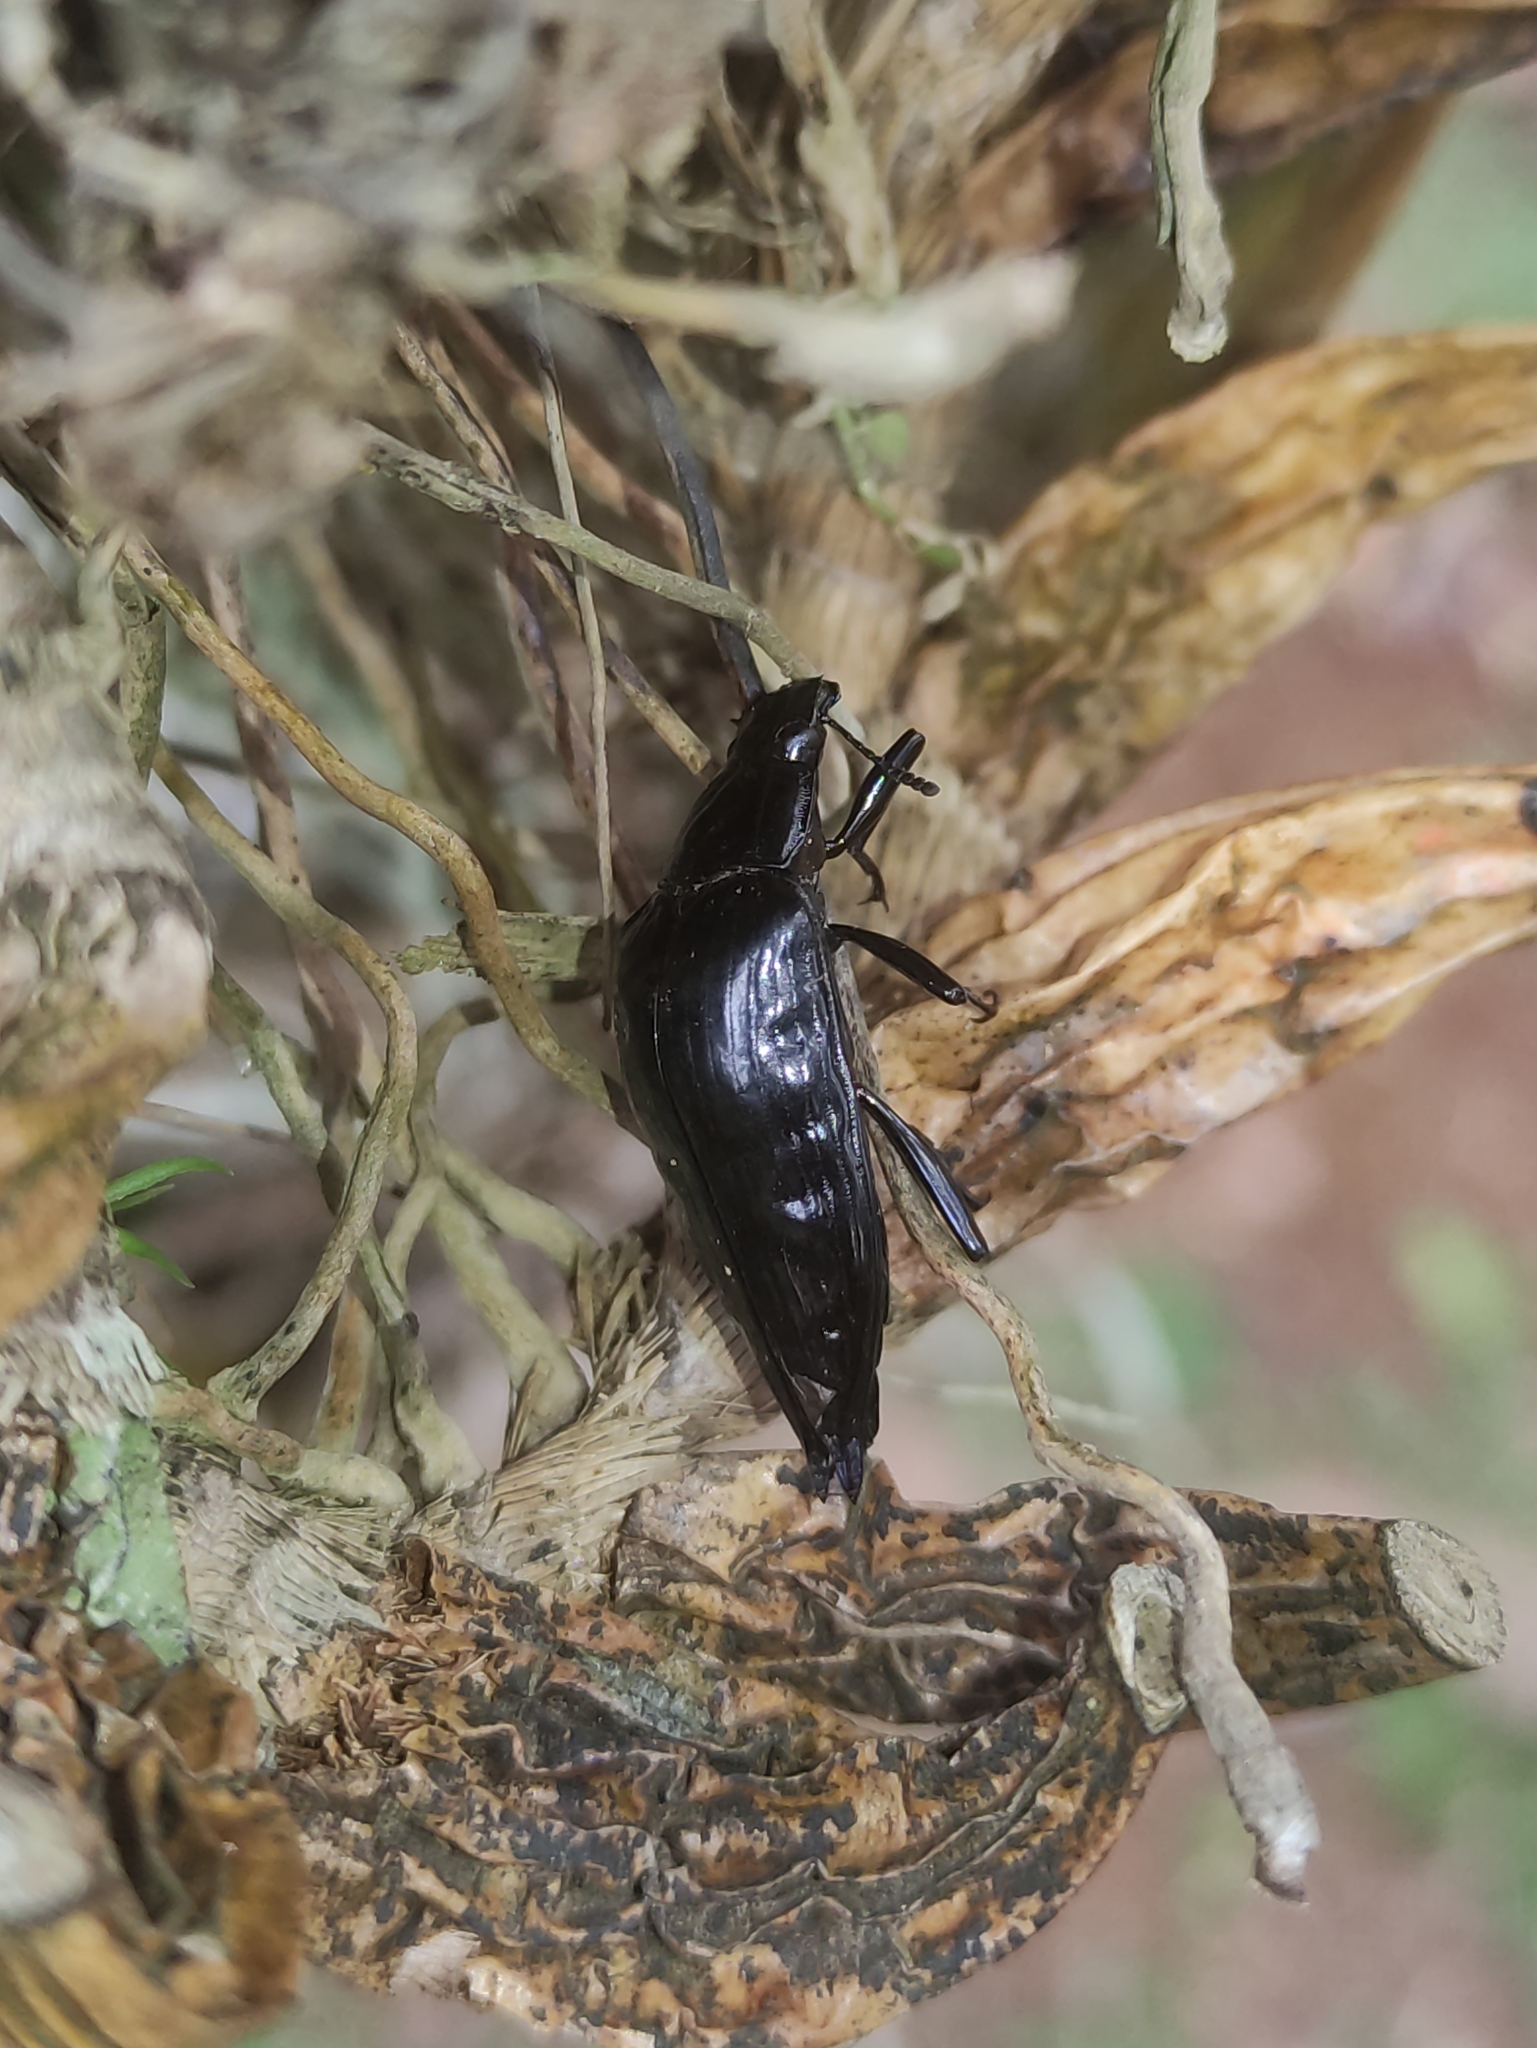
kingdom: Animalia
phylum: Arthropoda
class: Insecta
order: Coleoptera
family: Tenebrionidae
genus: Blapida
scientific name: Blapida
